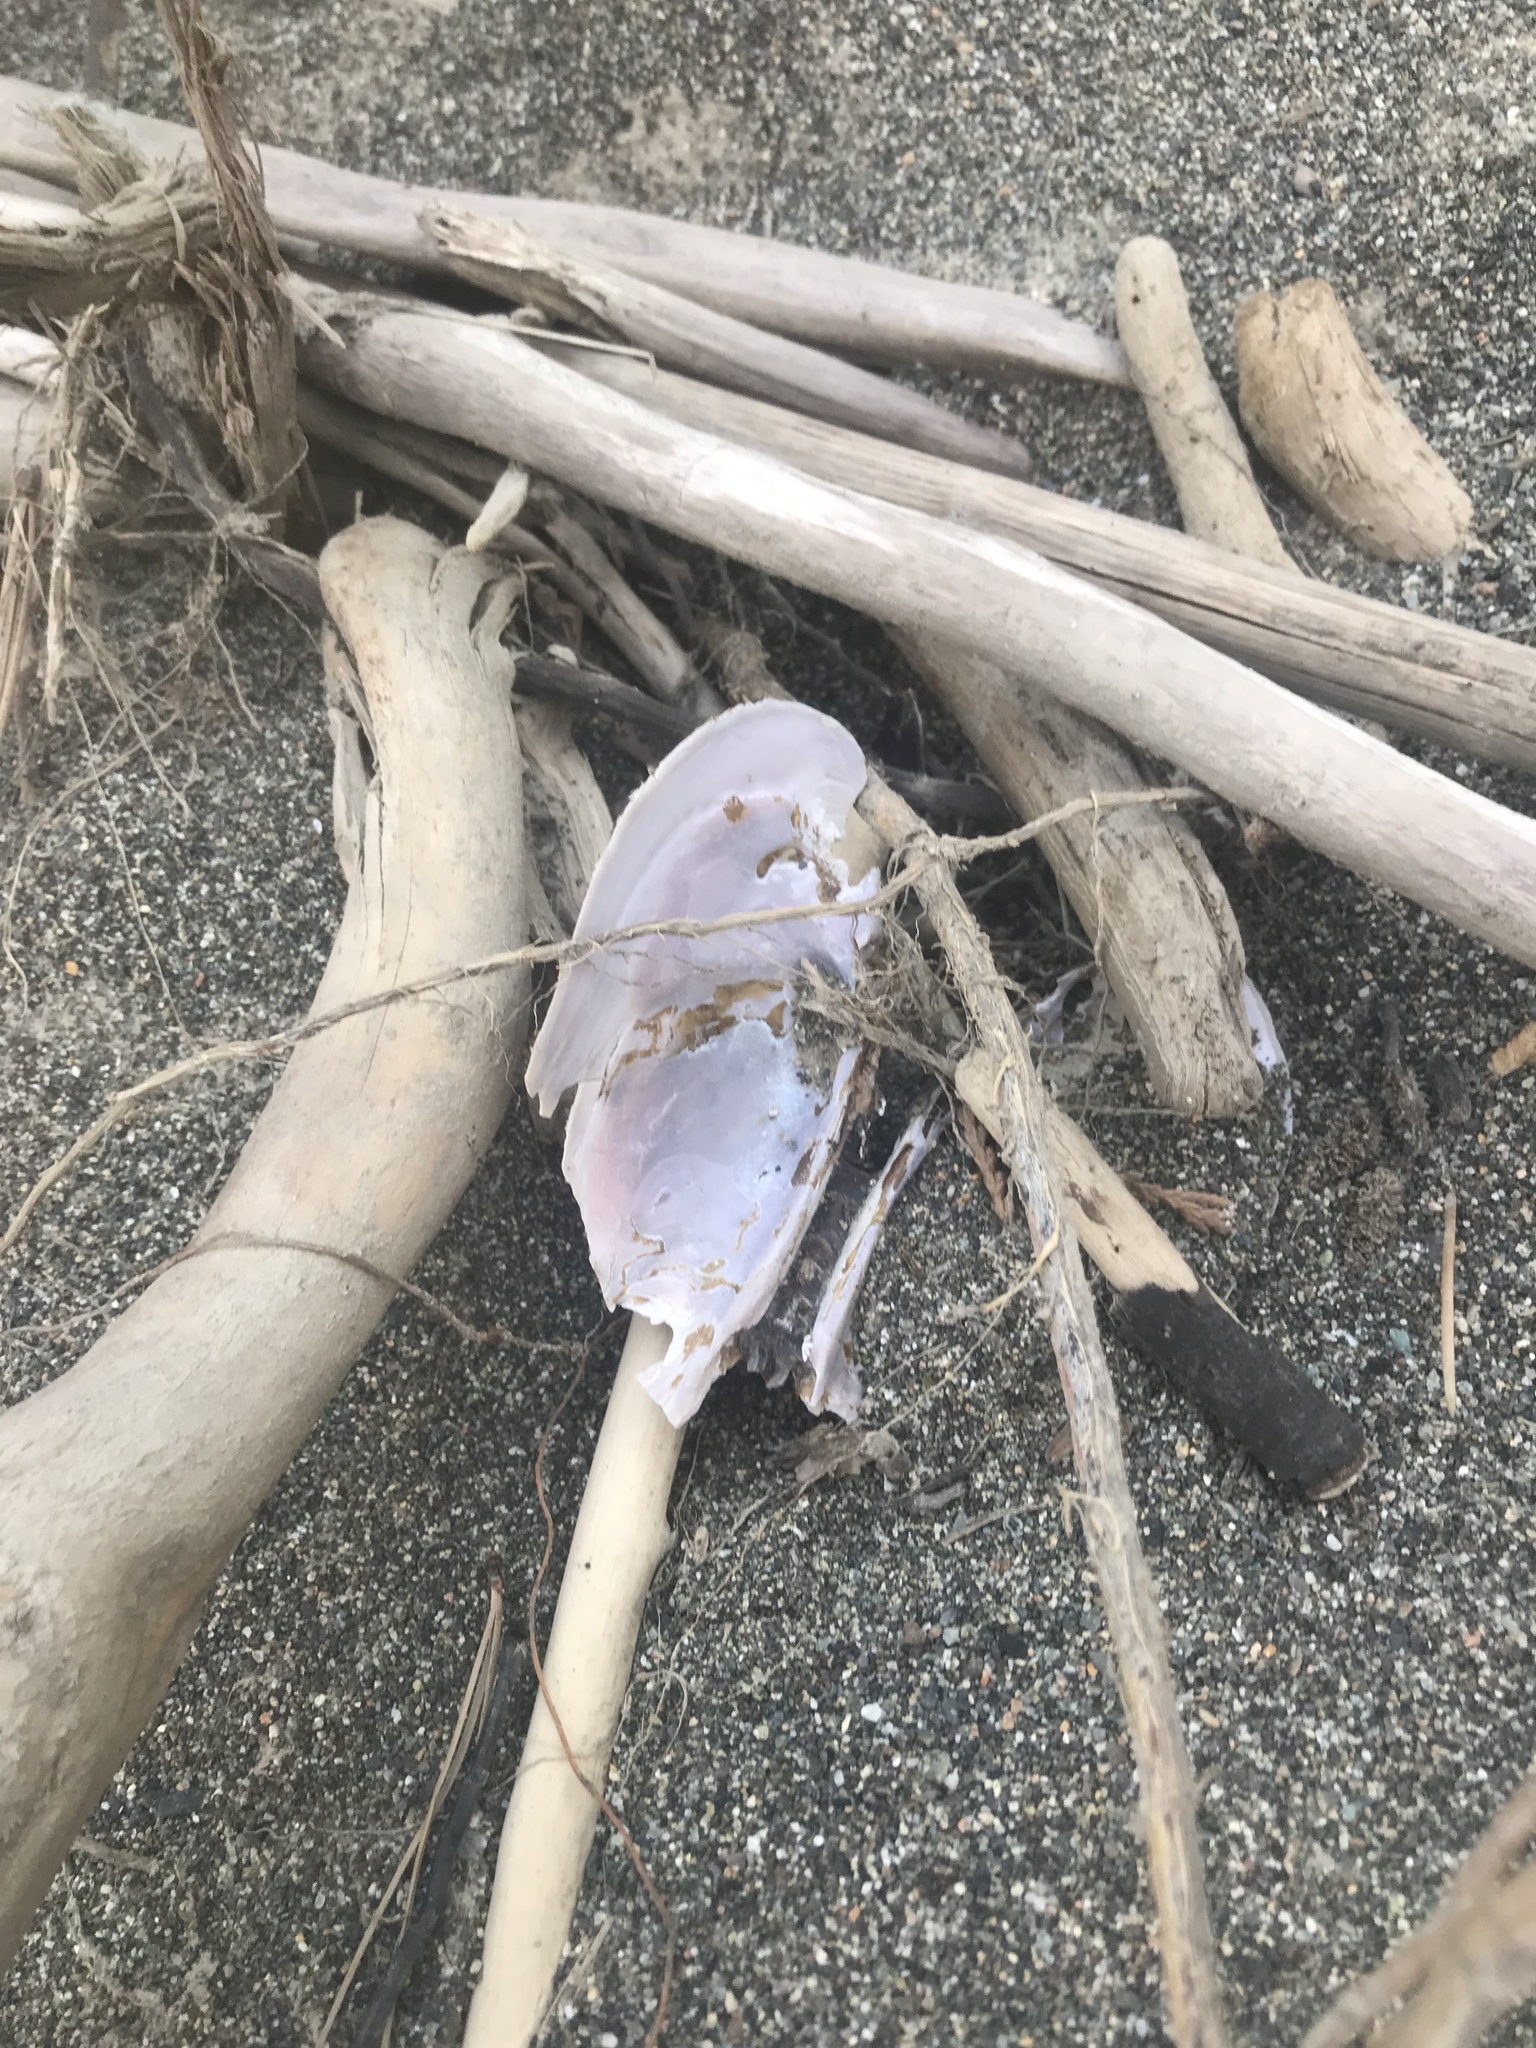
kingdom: Animalia
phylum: Mollusca
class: Bivalvia
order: Unionida
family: Margaritiferidae
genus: Margaritifera
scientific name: Margaritifera falcata
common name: Western pearlshell
